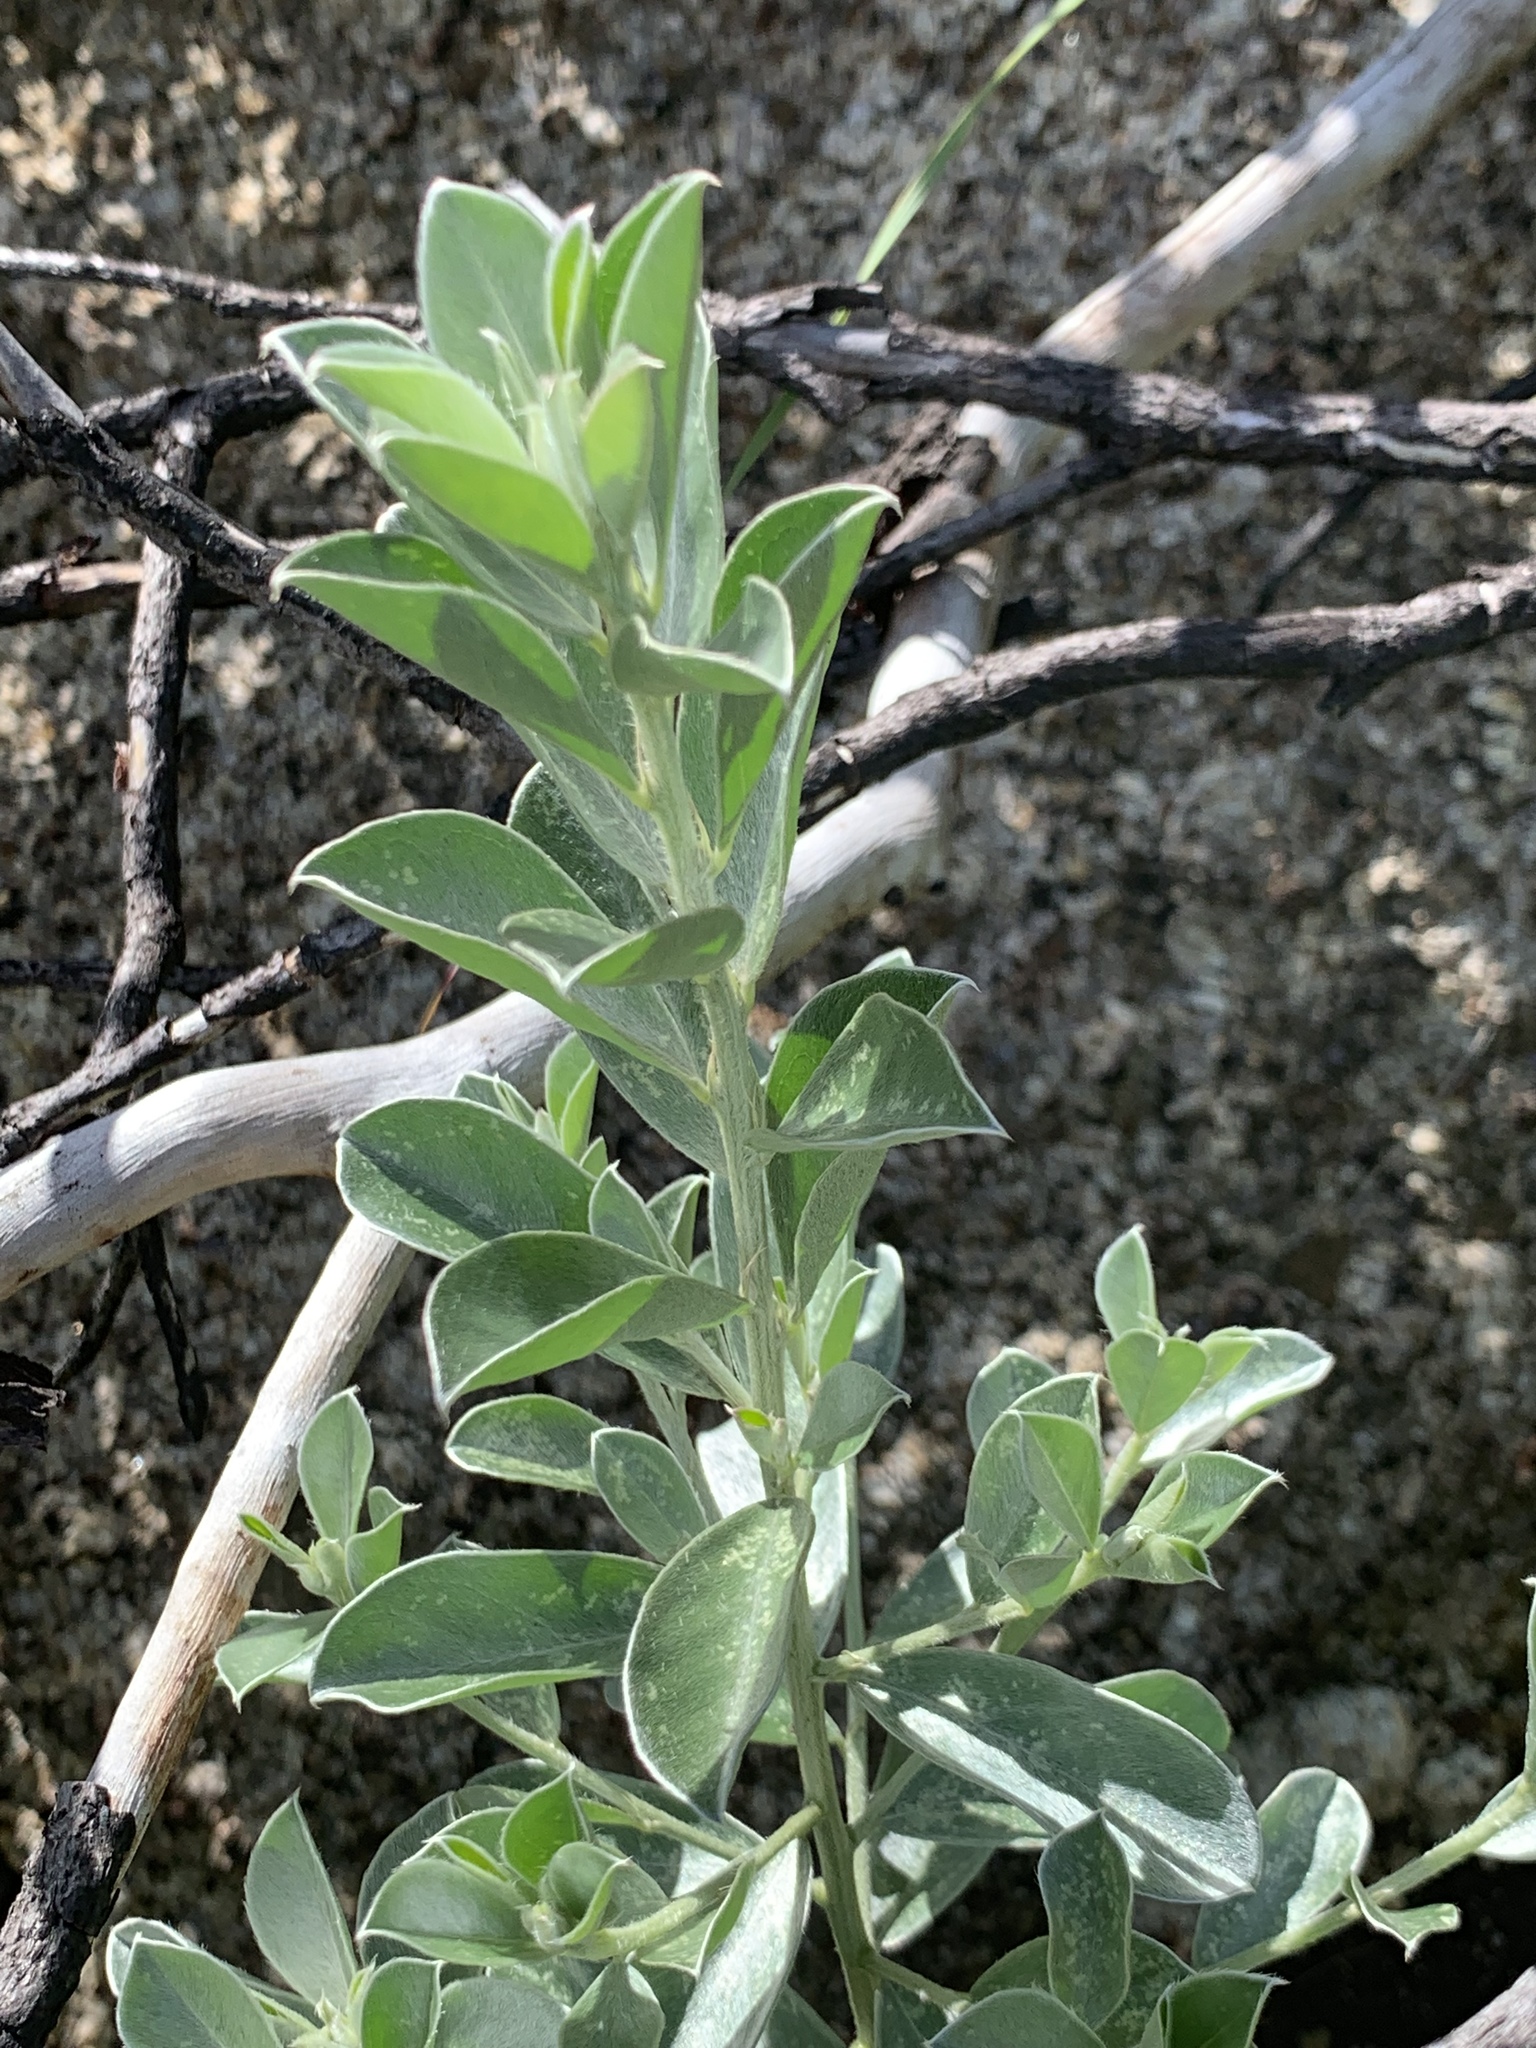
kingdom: Plantae
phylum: Tracheophyta
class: Magnoliopsida
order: Fabales
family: Fabaceae
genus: Podalyria
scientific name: Podalyria calyptrata
